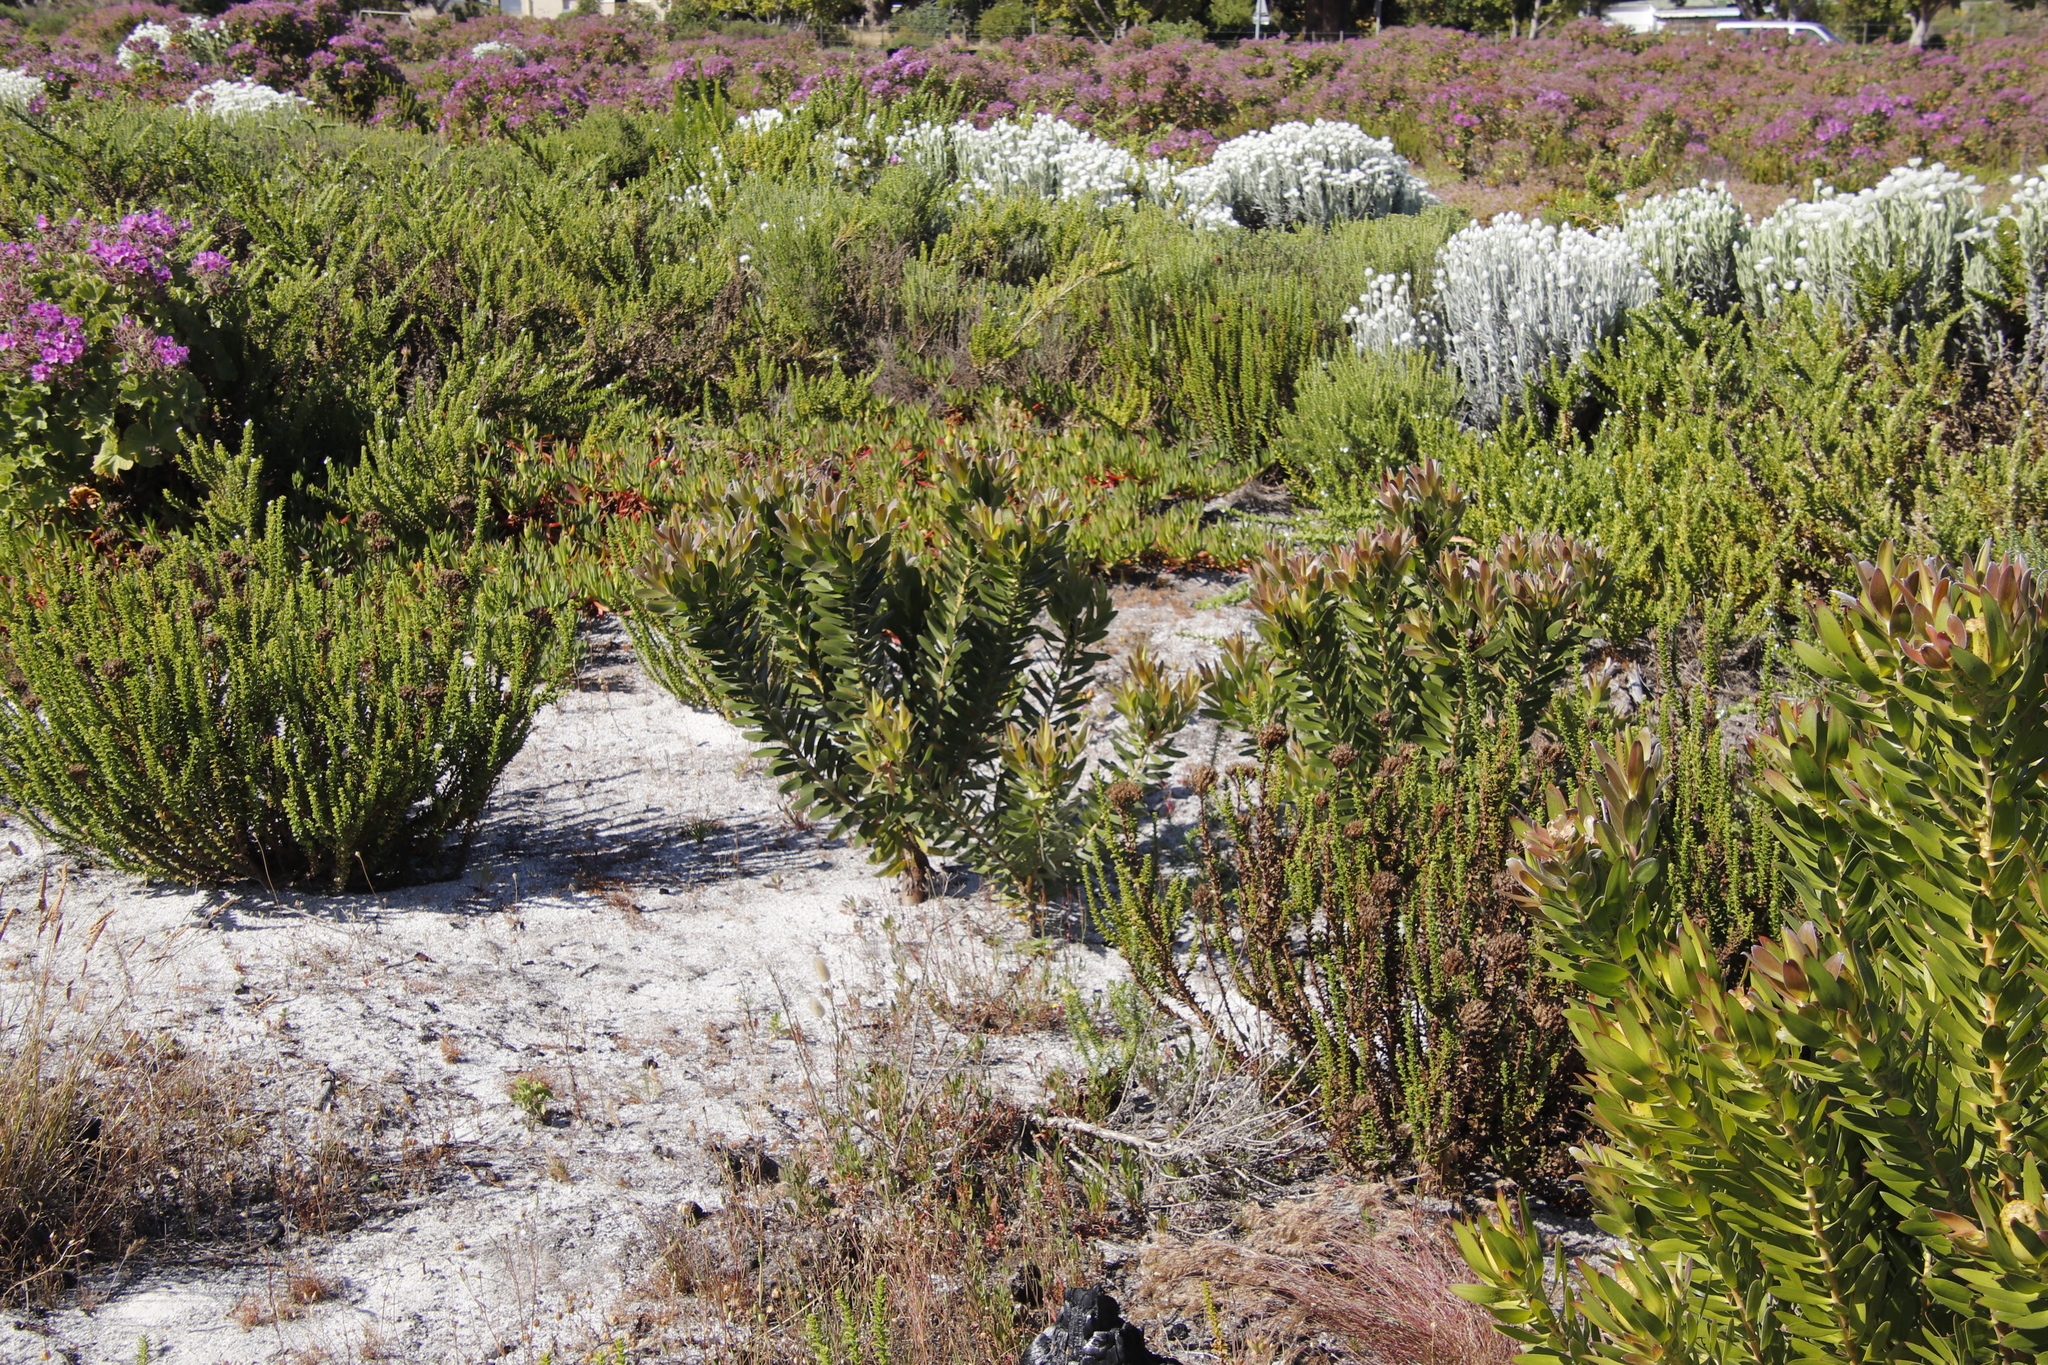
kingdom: Plantae
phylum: Tracheophyta
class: Magnoliopsida
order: Proteales
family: Proteaceae
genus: Leucadendron
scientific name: Leucadendron laureolum
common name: Golden sunshinebush
